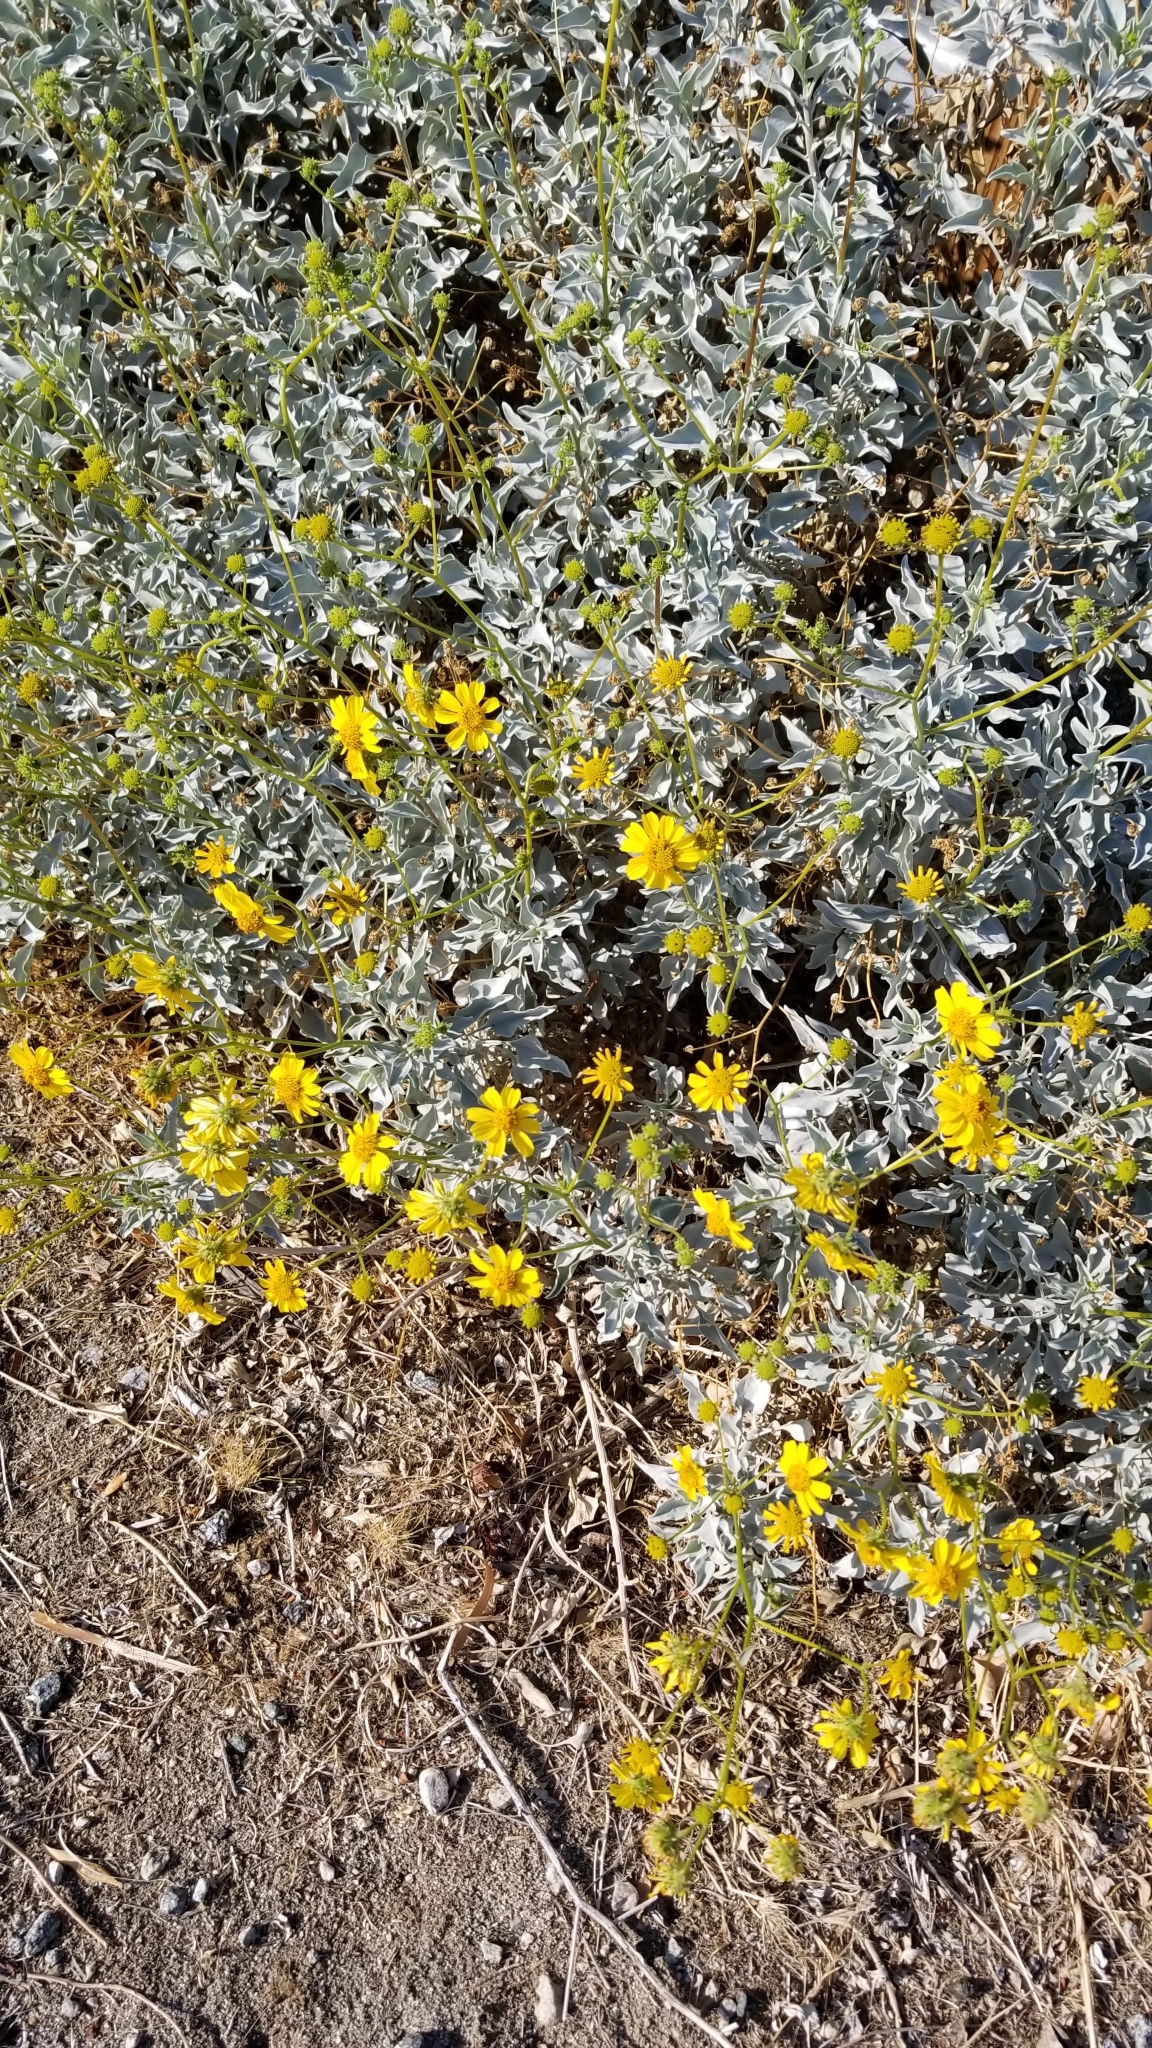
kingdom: Plantae
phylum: Tracheophyta
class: Magnoliopsida
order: Asterales
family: Asteraceae
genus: Encelia
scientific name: Encelia farinosa
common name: Brittlebush
